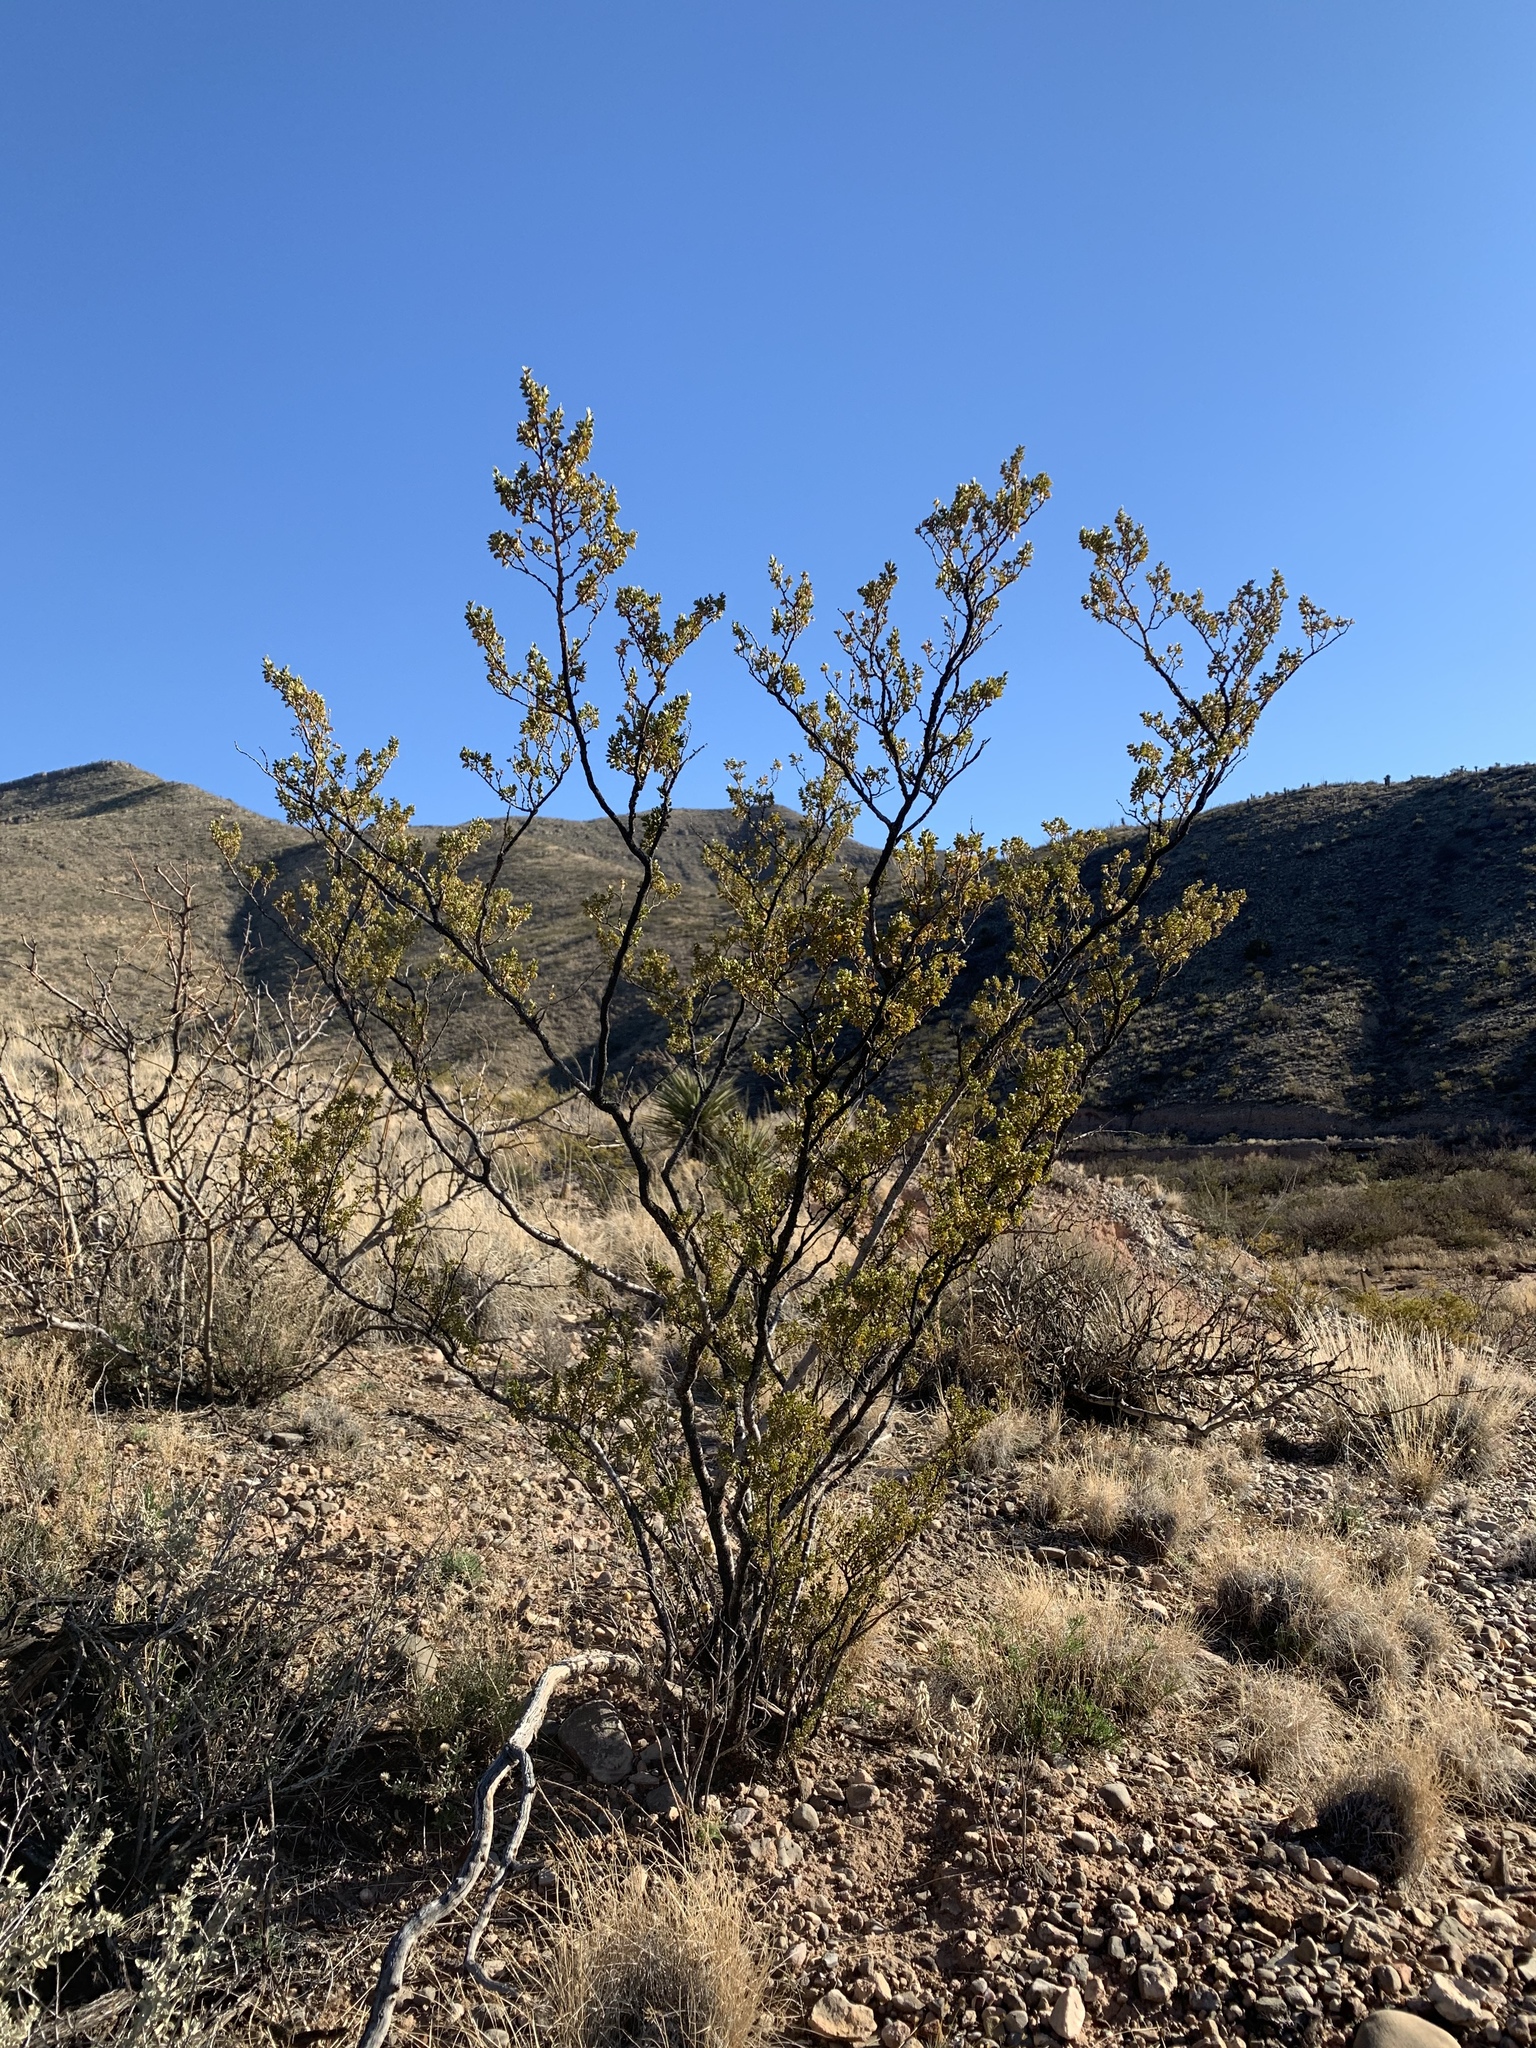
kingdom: Plantae
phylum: Tracheophyta
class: Magnoliopsida
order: Zygophyllales
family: Zygophyllaceae
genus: Larrea
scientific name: Larrea tridentata
